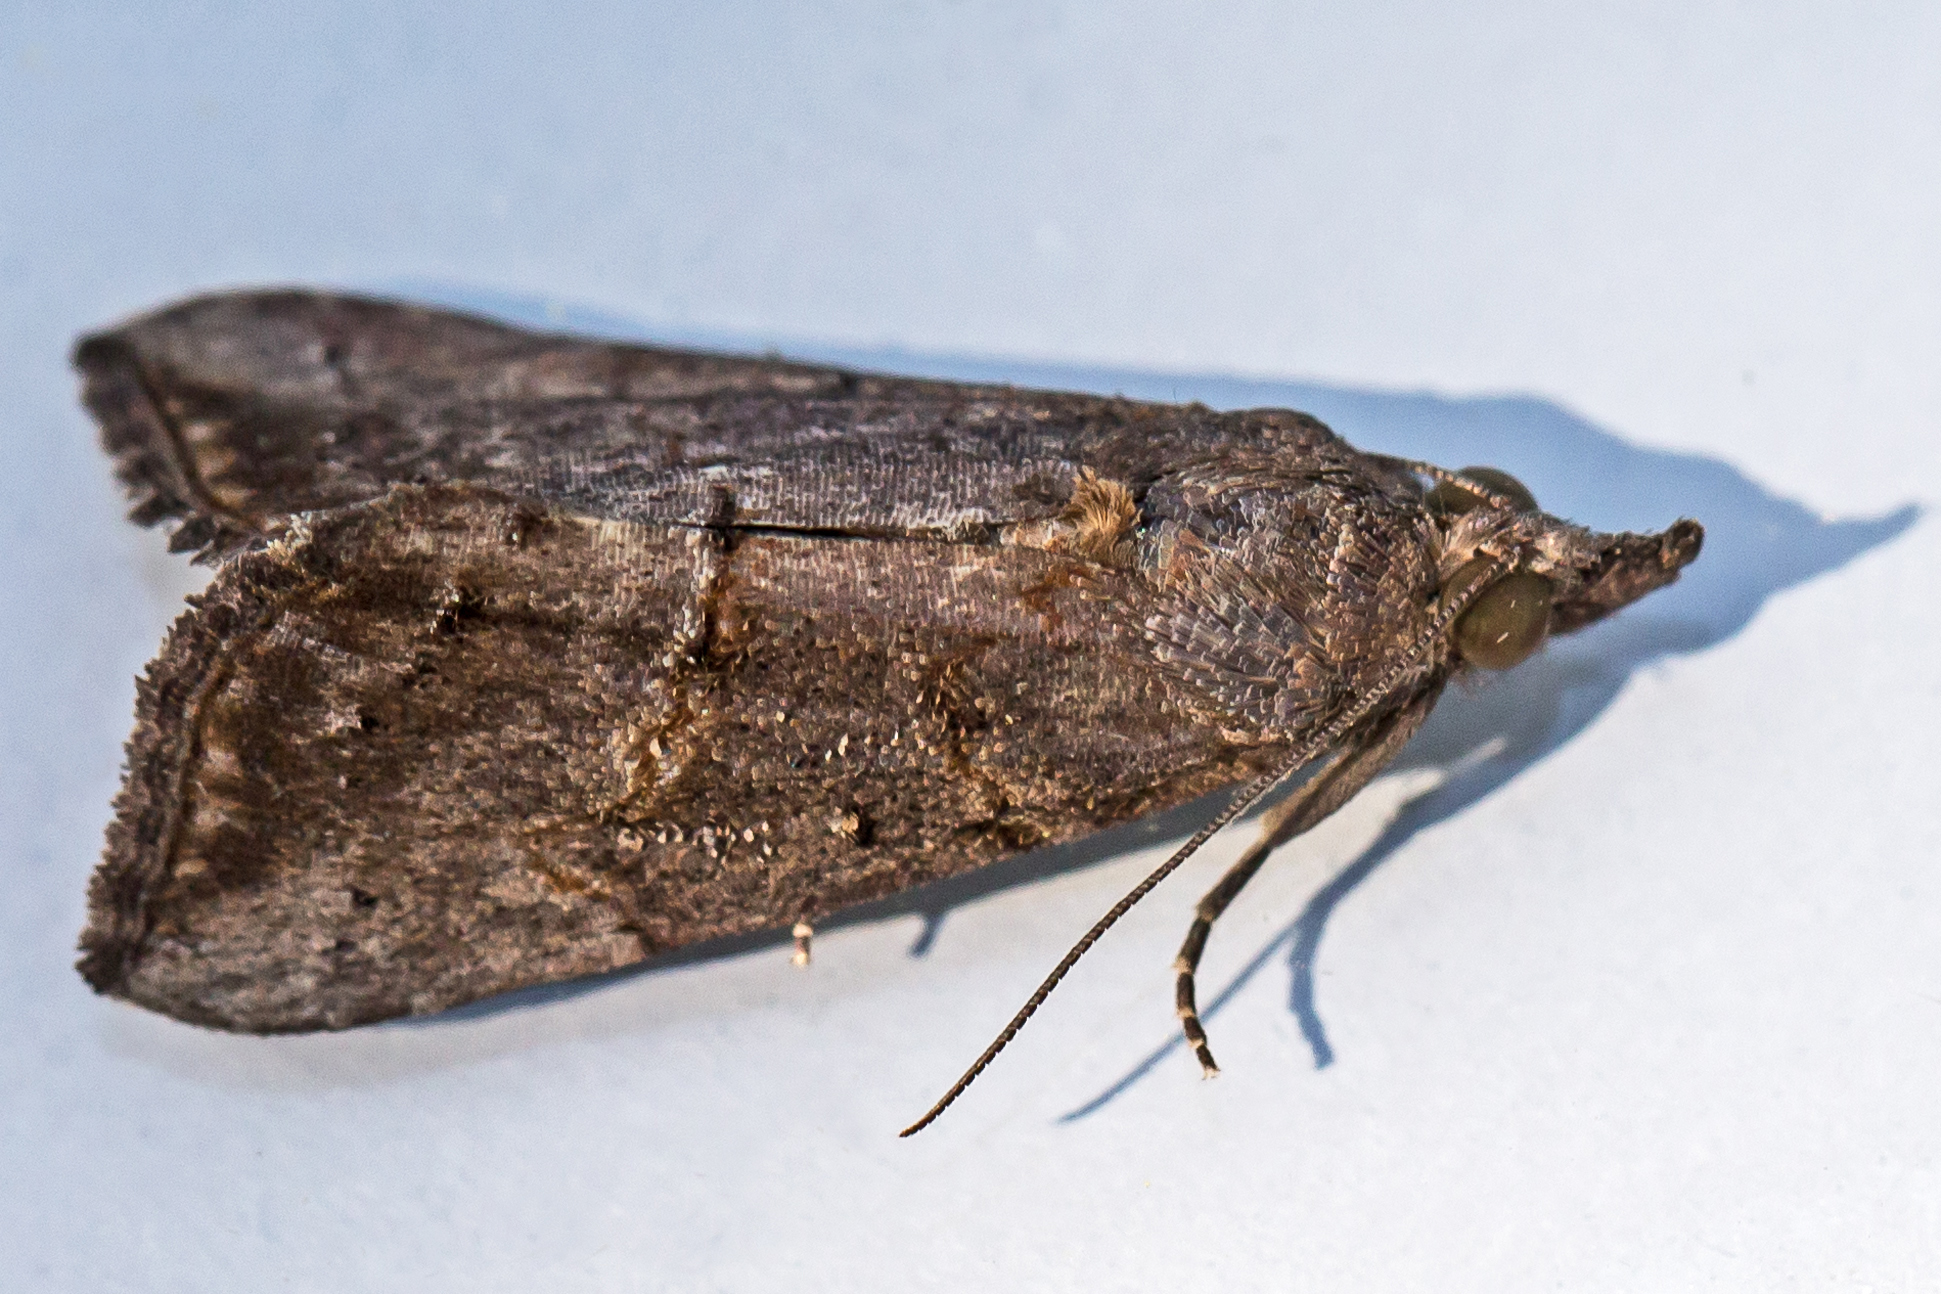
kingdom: Animalia
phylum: Arthropoda
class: Insecta
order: Lepidoptera
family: Erebidae
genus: Hypena
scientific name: Hypena scabra
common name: Green cloverworm
